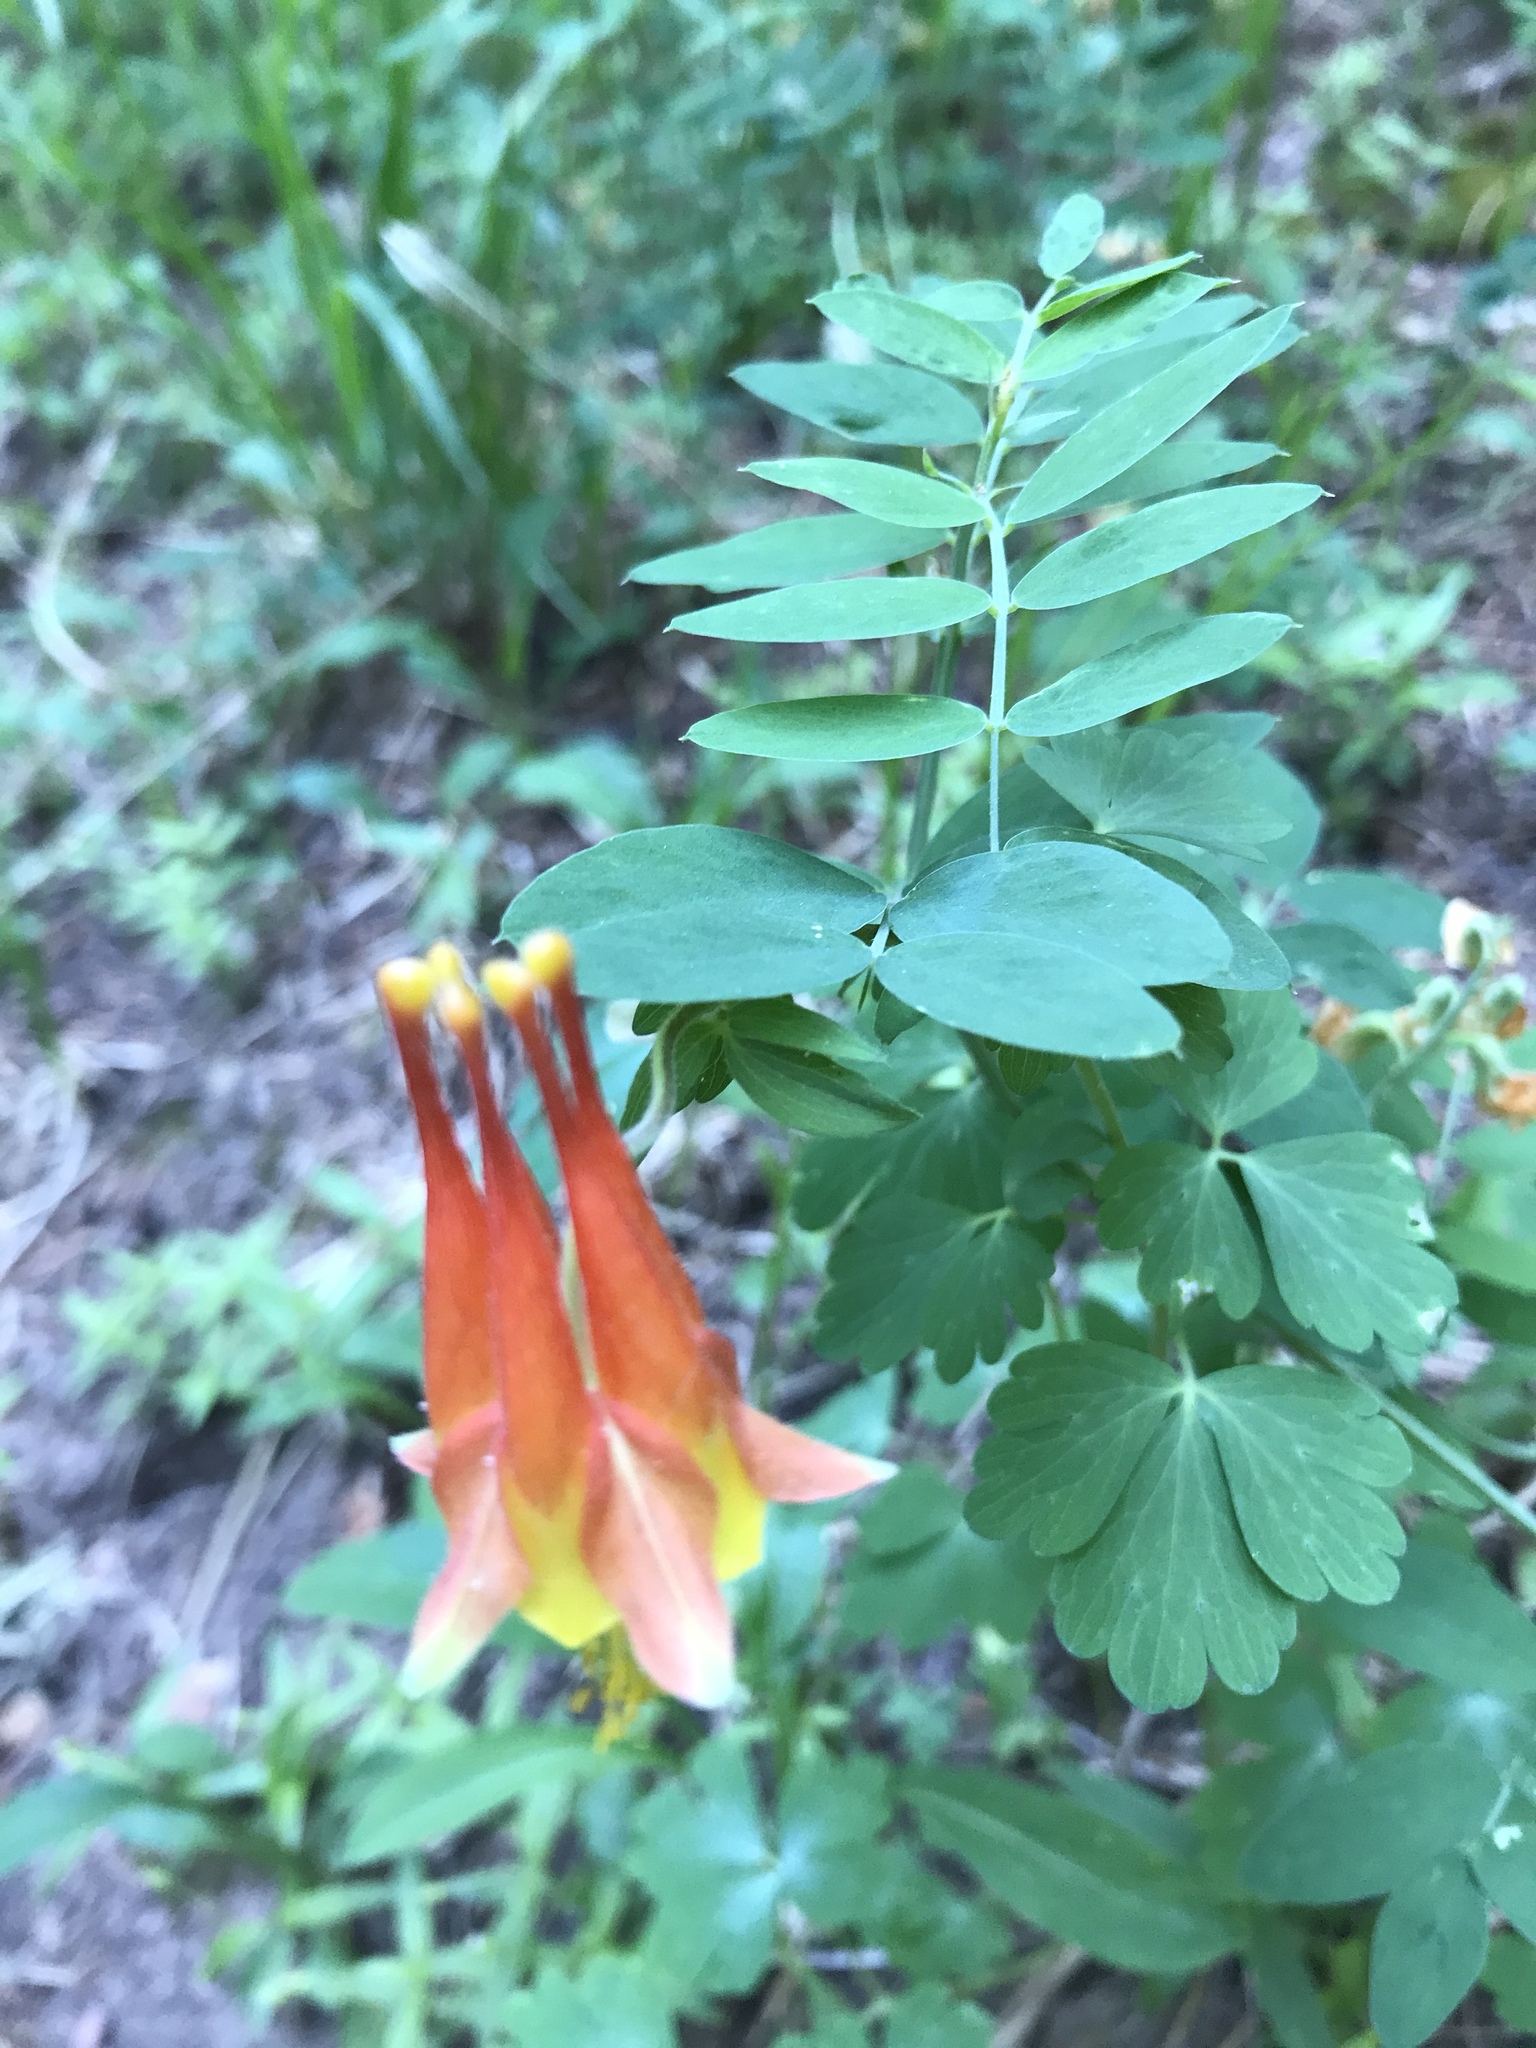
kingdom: Plantae
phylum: Tracheophyta
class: Magnoliopsida
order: Ranunculales
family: Ranunculaceae
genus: Aquilegia
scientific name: Aquilegia desertorum
